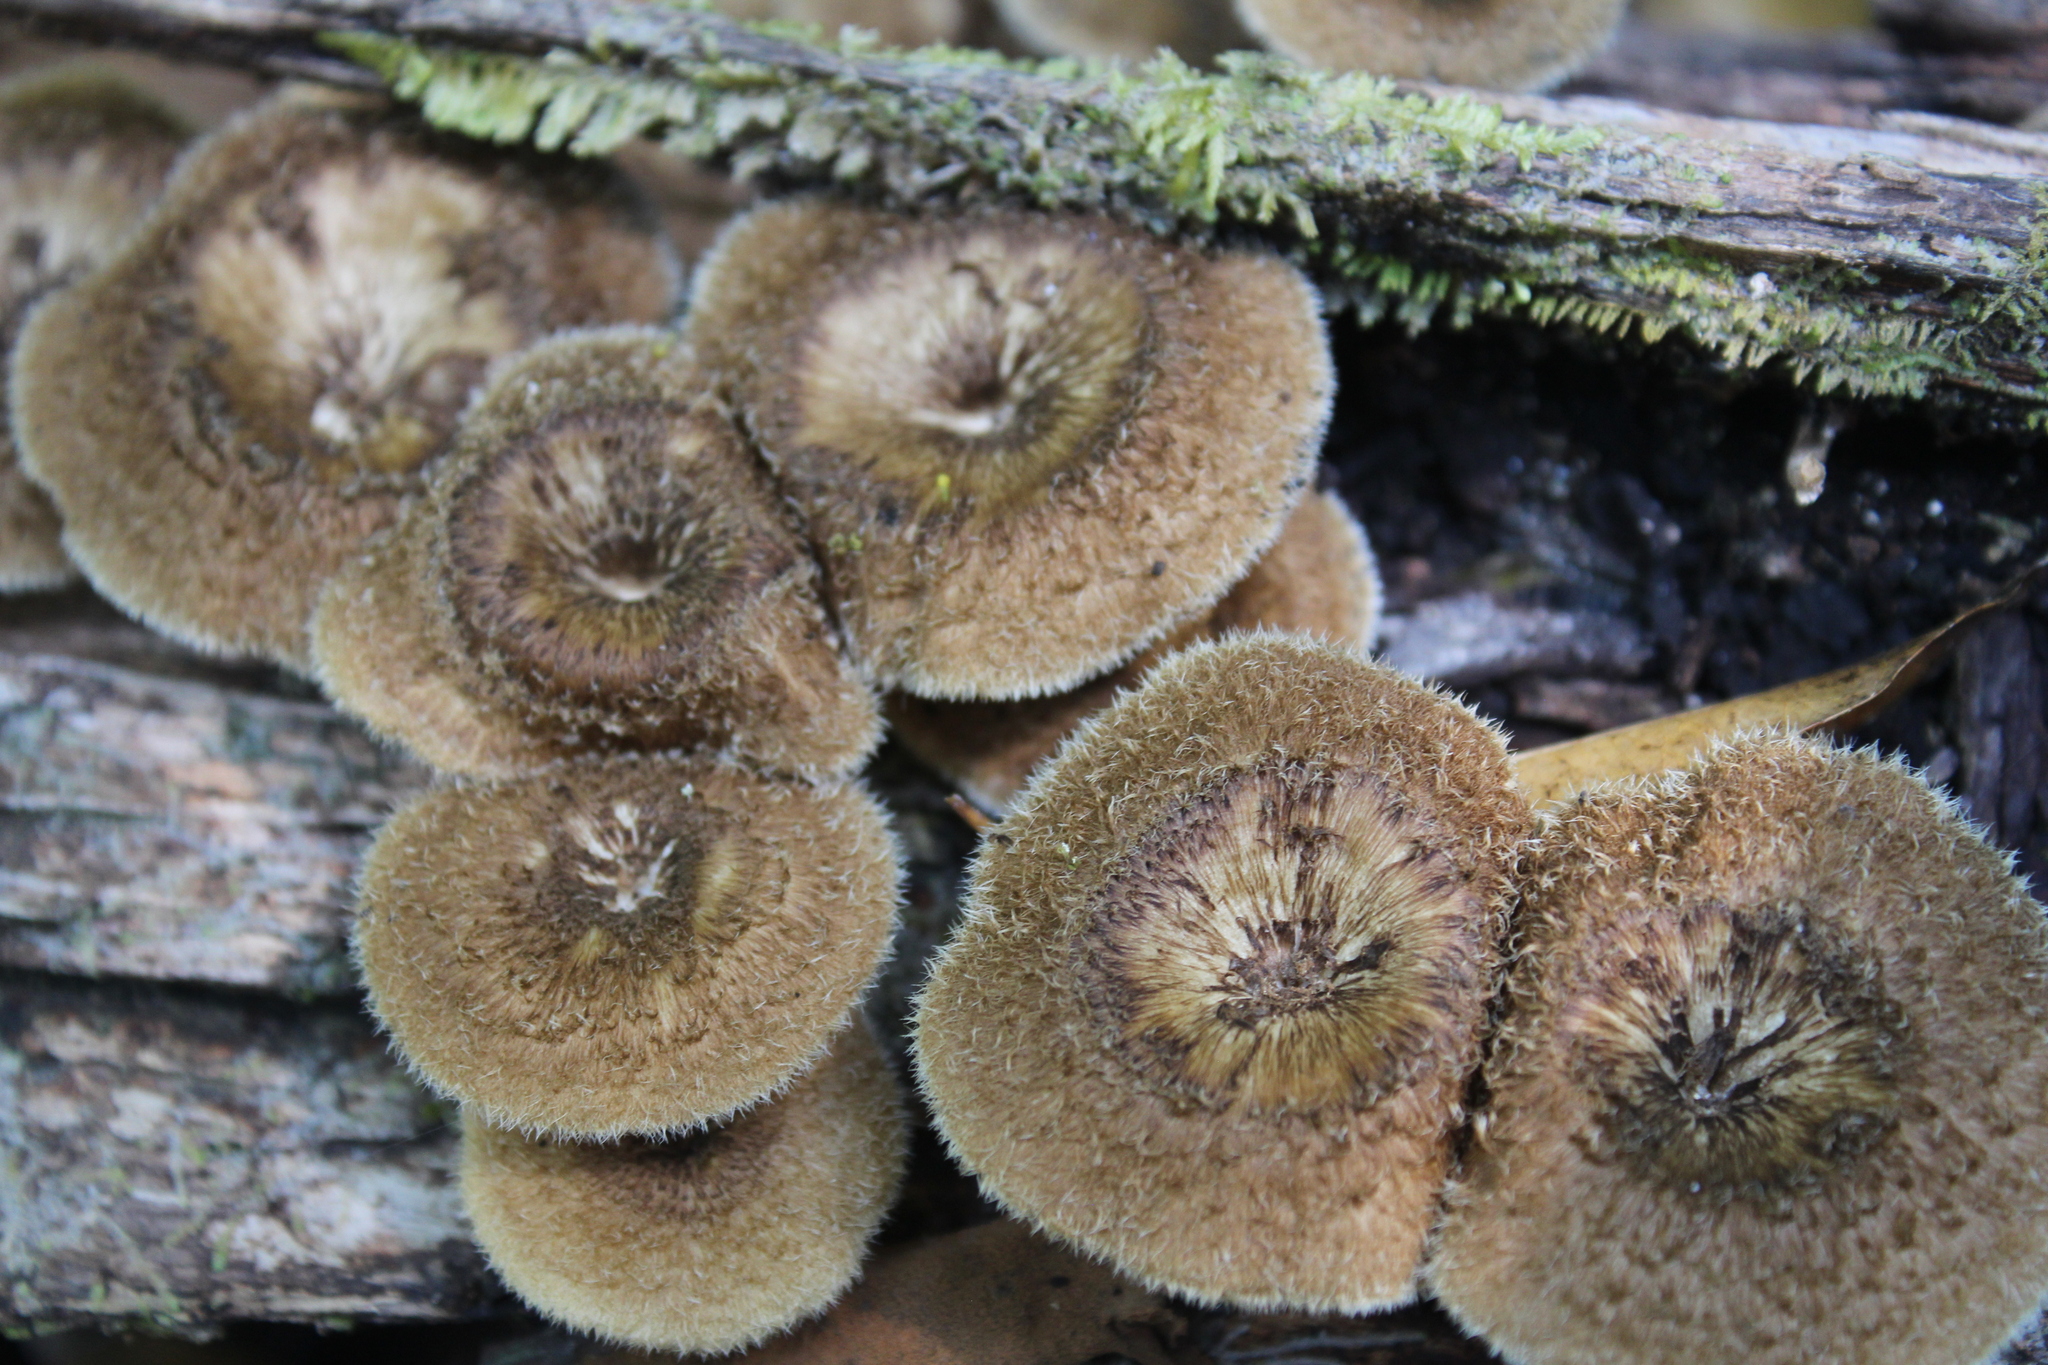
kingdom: Fungi
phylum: Basidiomycota
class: Agaricomycetes
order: Polyporales
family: Polyporaceae
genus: Lentinus
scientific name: Lentinus crinitus
